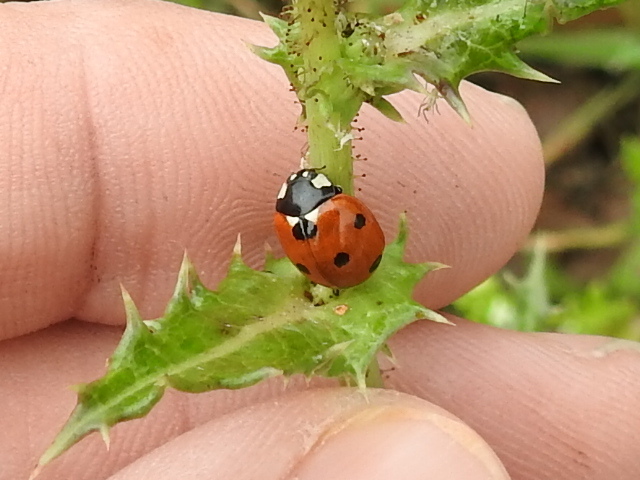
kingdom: Animalia
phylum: Arthropoda
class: Insecta
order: Coleoptera
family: Coccinellidae
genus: Coccinella
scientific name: Coccinella septempunctata
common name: Sevenspotted lady beetle
